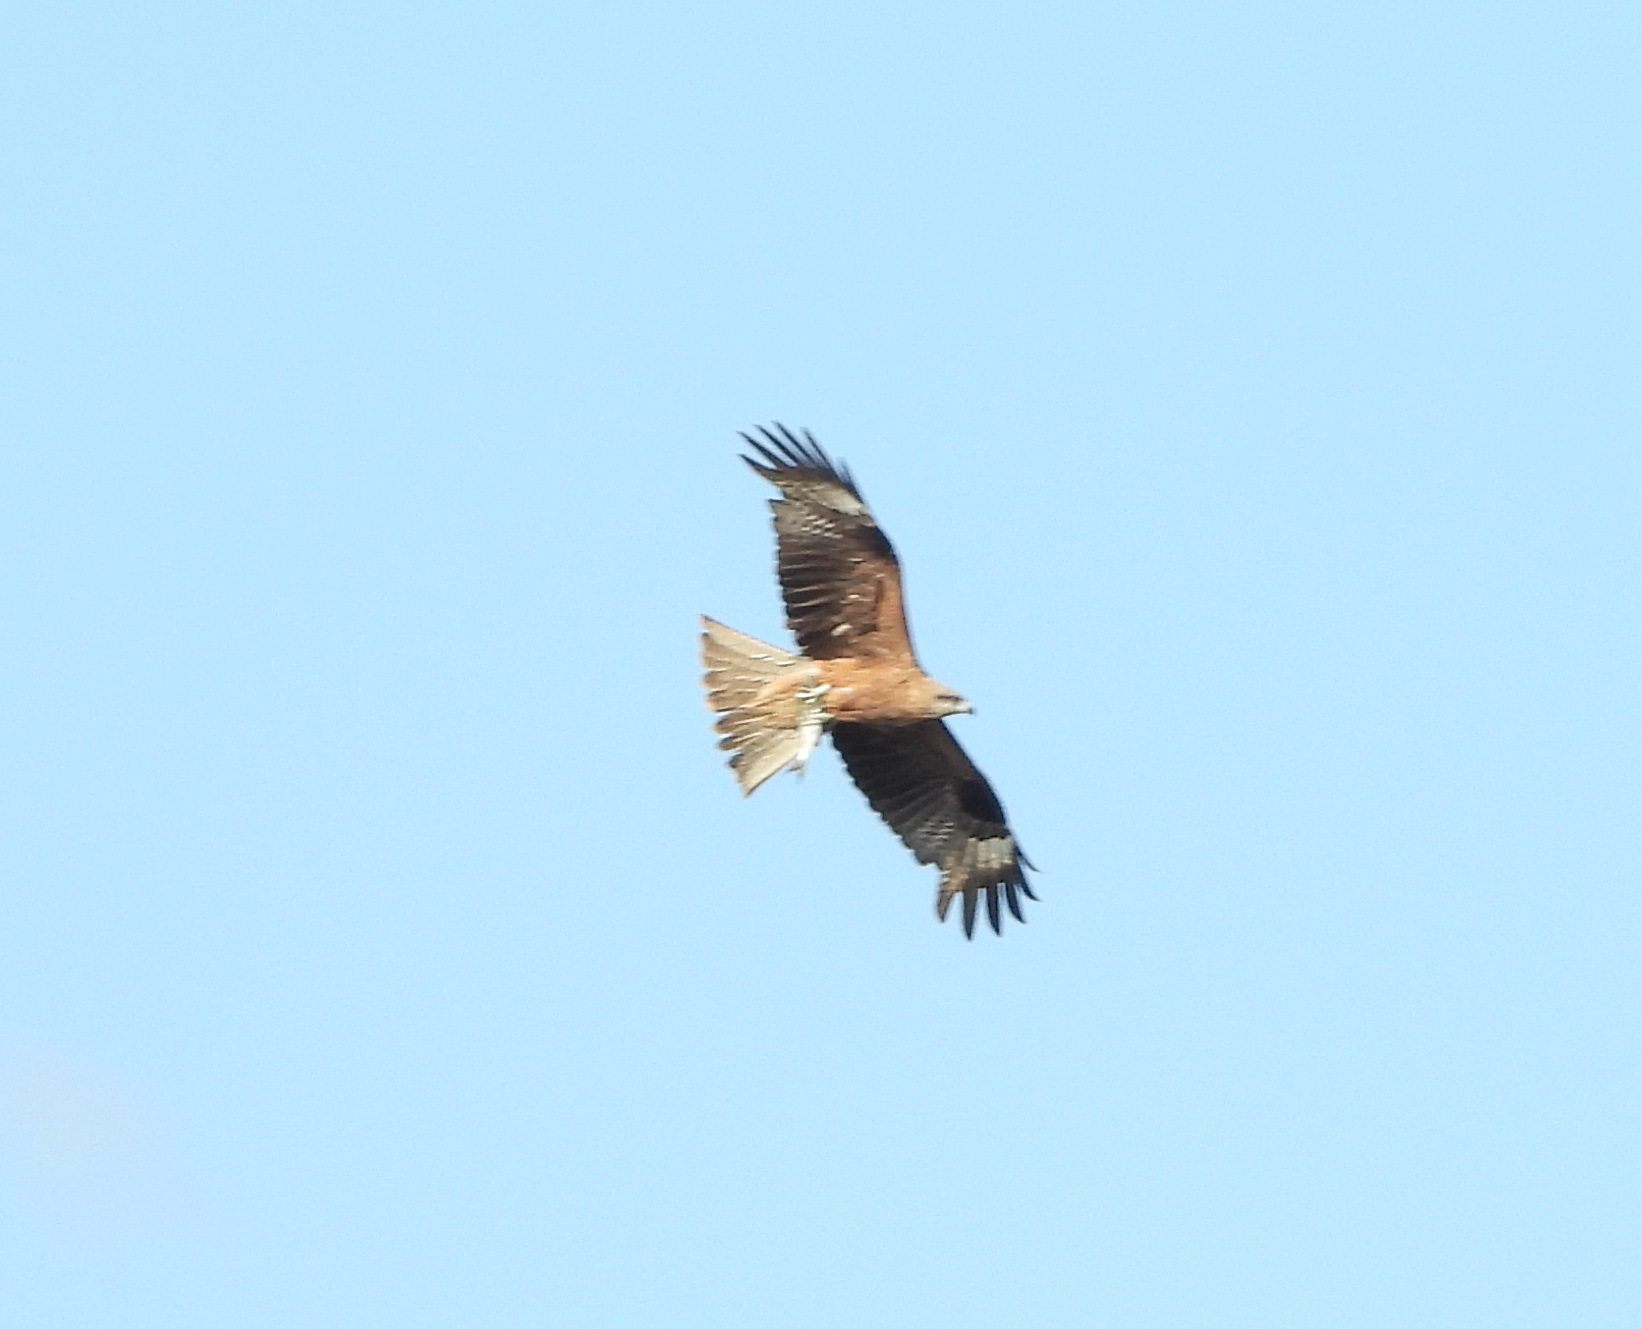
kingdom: Animalia
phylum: Chordata
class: Aves
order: Accipitriformes
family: Accipitridae
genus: Milvus
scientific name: Milvus migrans
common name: Black kite
